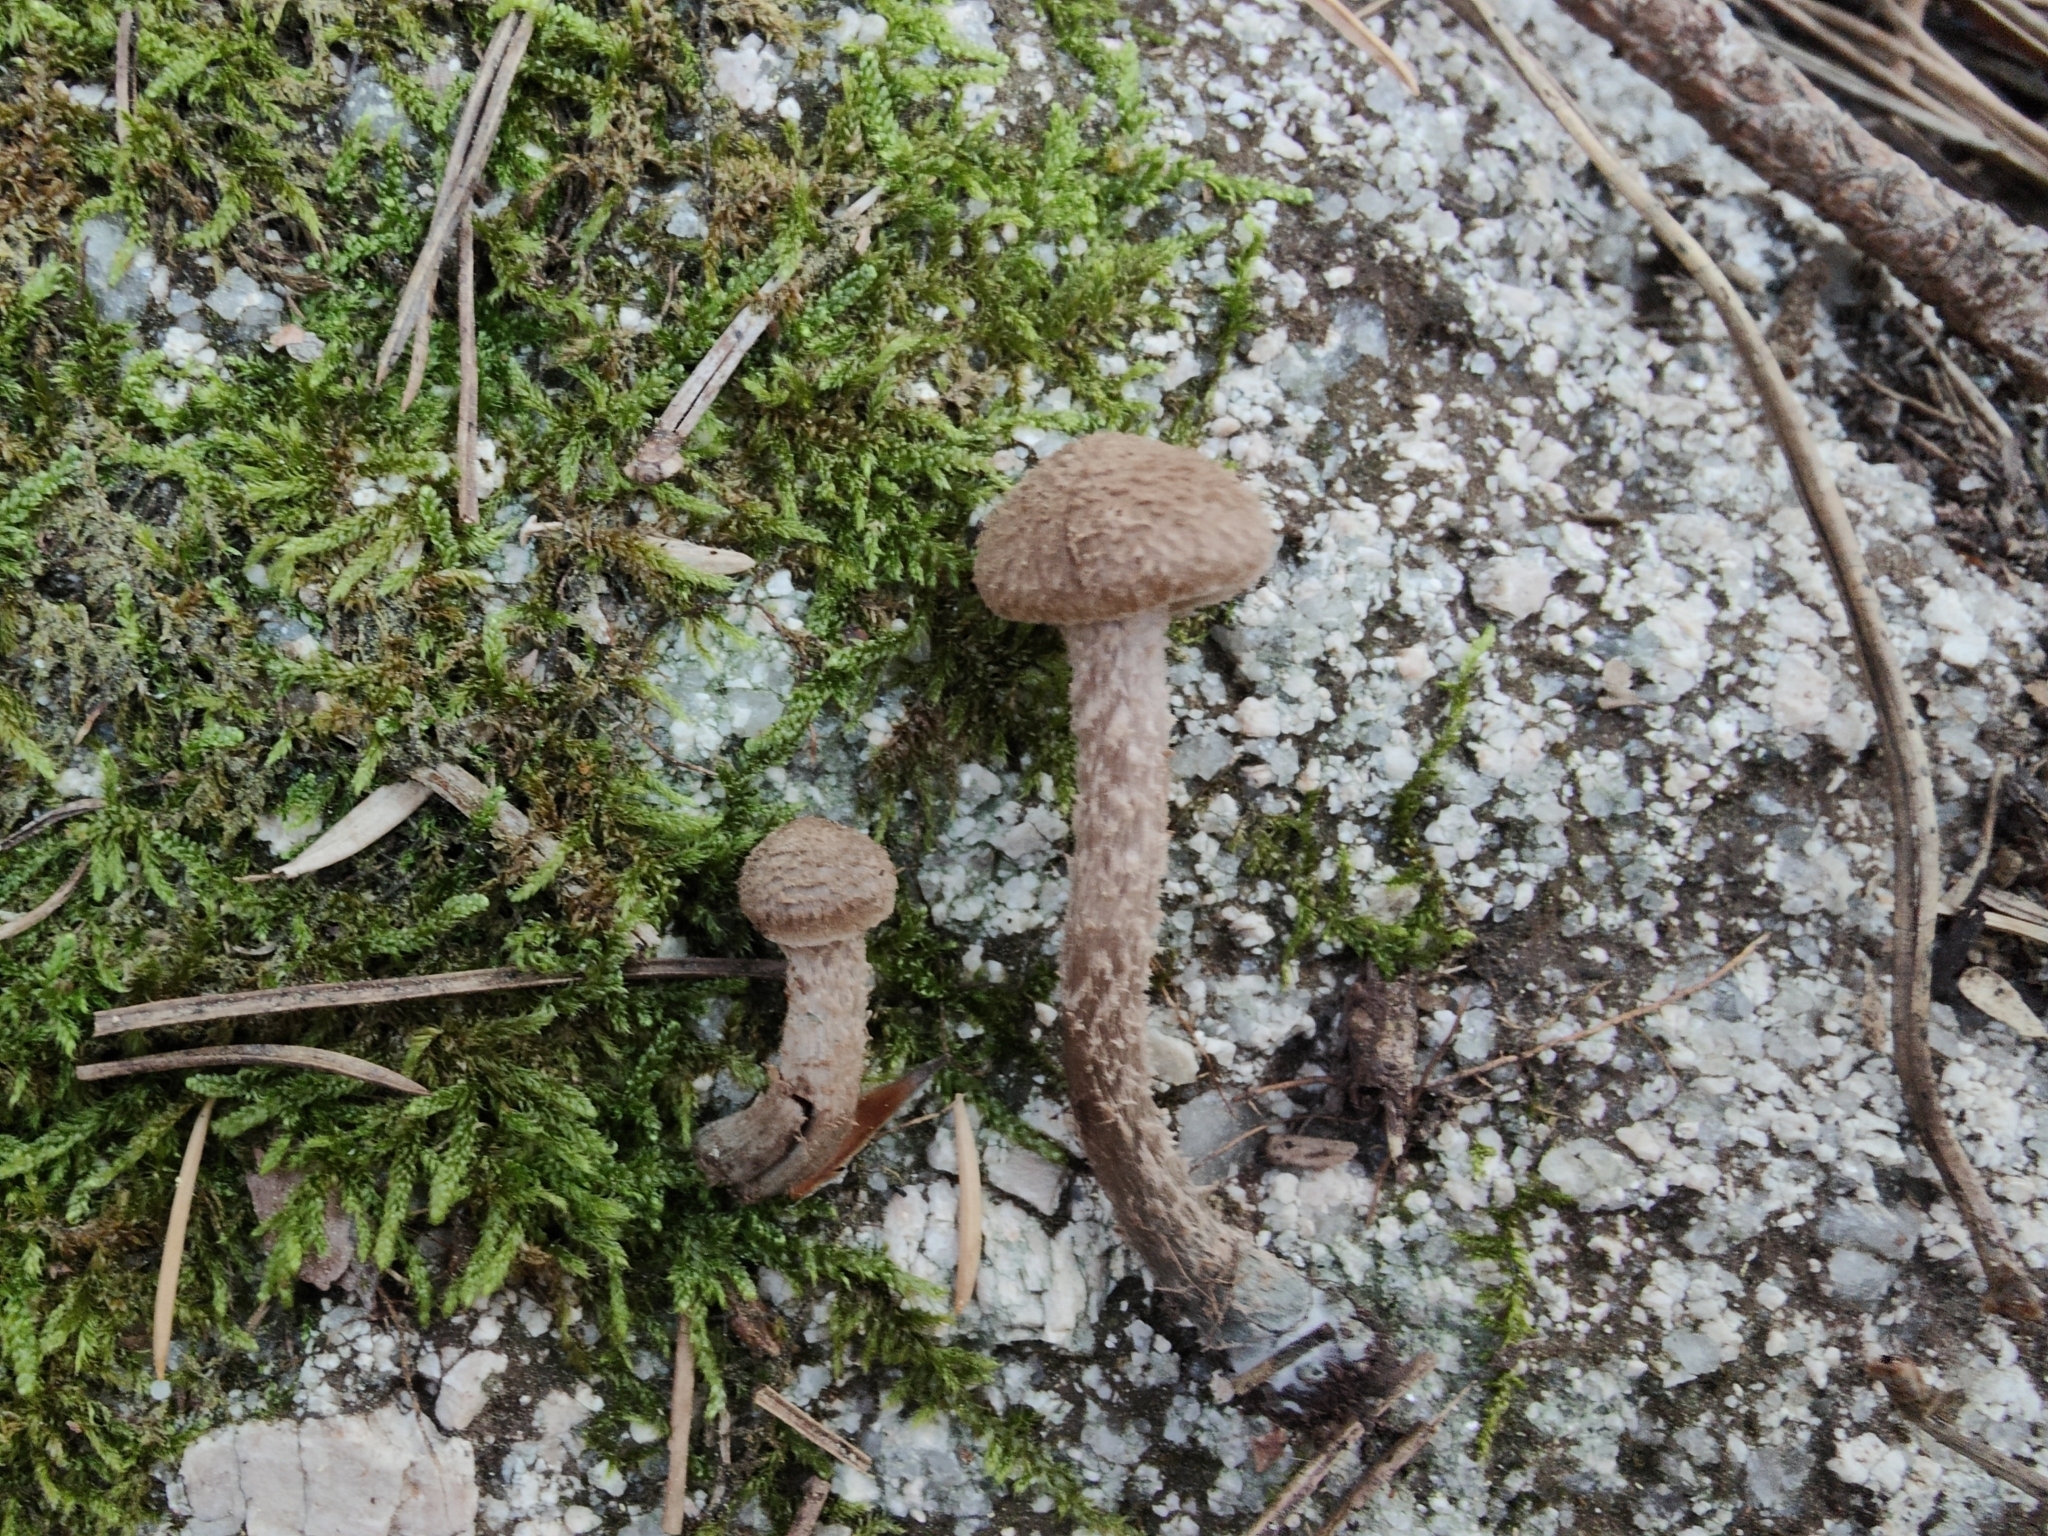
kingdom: Fungi
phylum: Basidiomycota
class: Agaricomycetes
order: Agaricales
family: Inocybaceae
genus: Inosperma
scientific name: Inosperma calamistratum
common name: Greenfoot fibrecap
